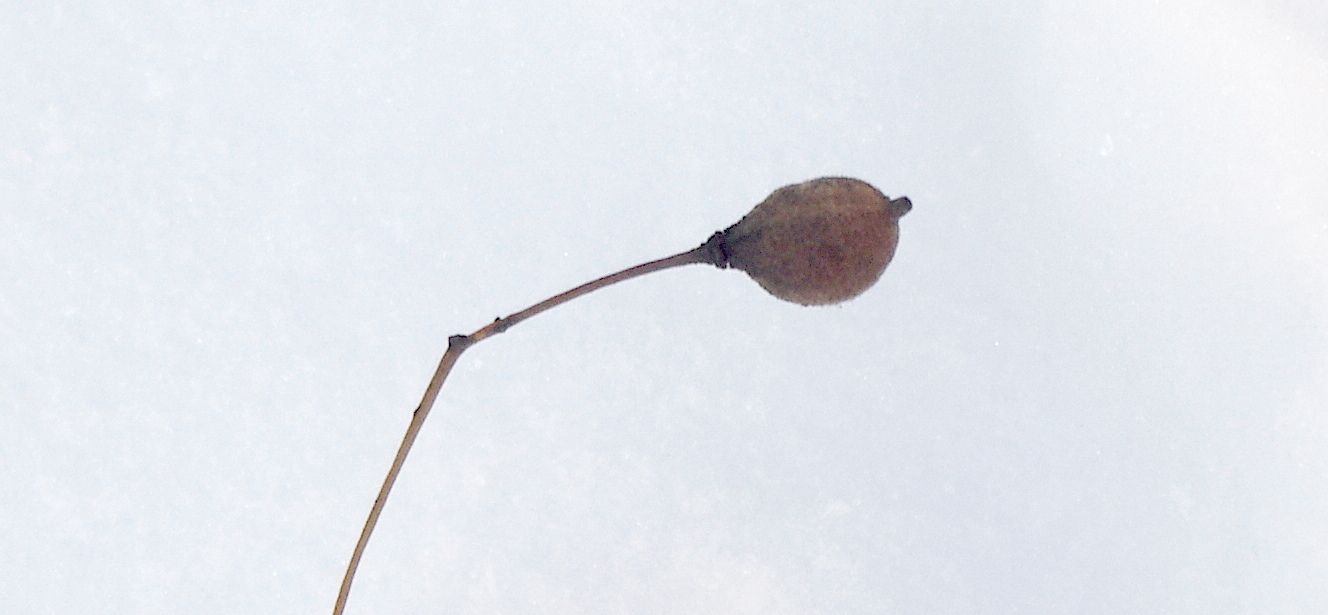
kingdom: Plantae
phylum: Tracheophyta
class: Magnoliopsida
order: Malvales
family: Malvaceae
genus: Tilia
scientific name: Tilia cordata
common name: Small-leaved lime
